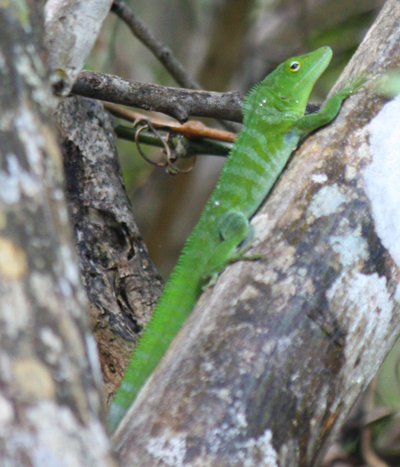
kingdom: Animalia
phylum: Chordata
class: Squamata
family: Dactyloidae
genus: Anolis
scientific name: Anolis garmani
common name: Jamaican giant anole
